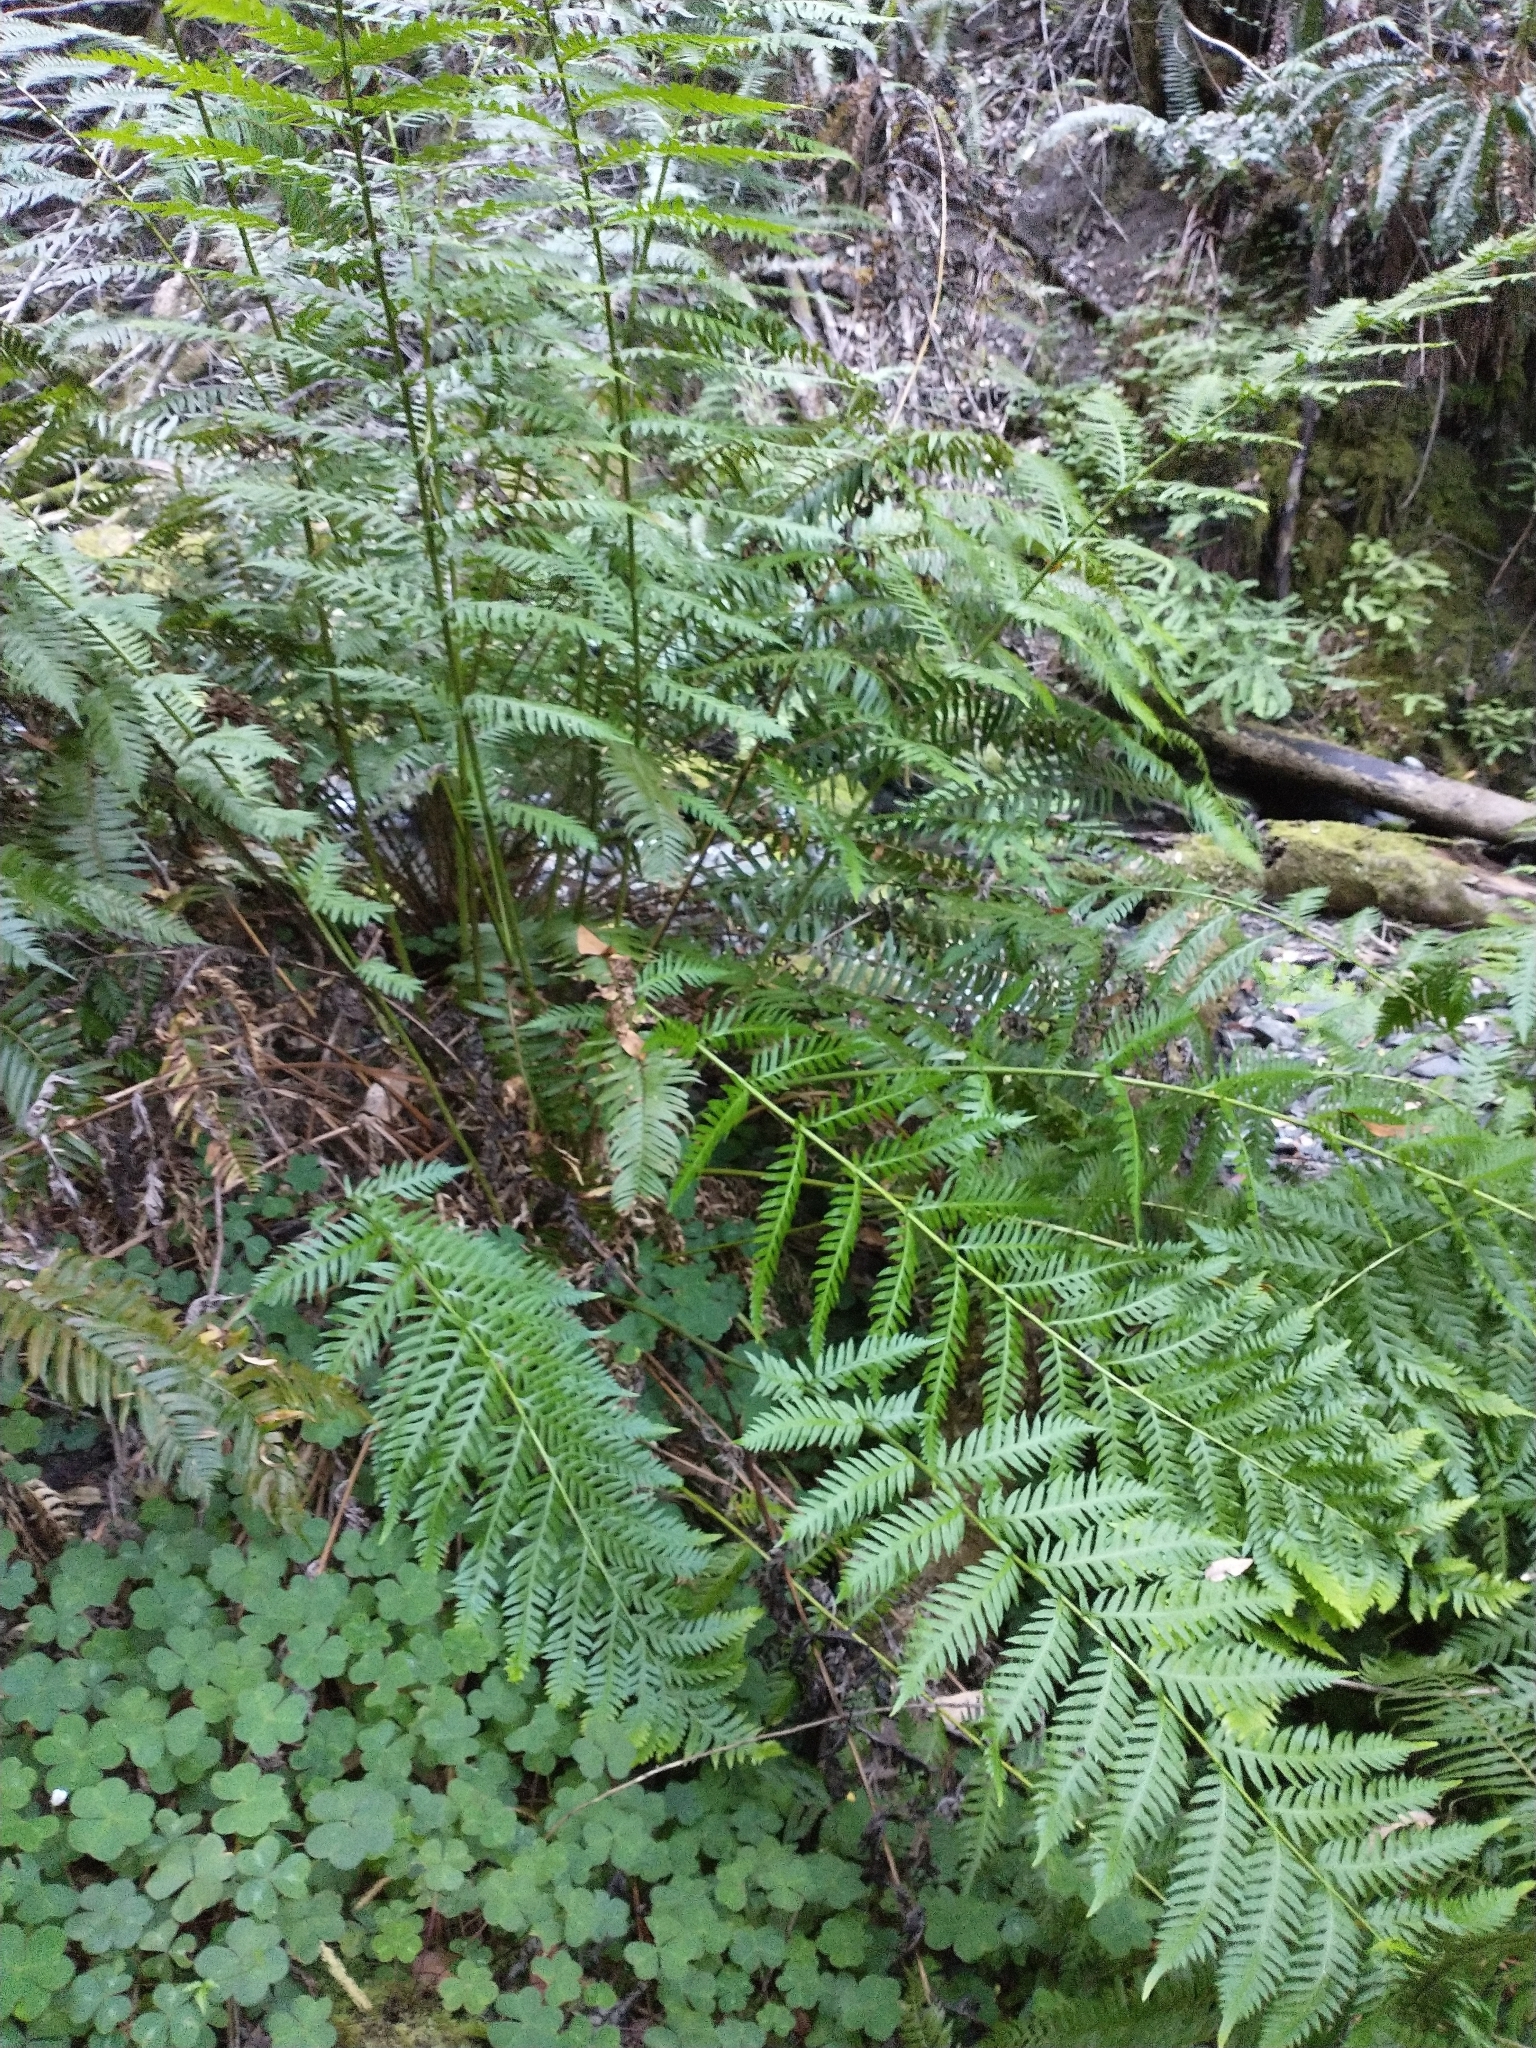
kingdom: Plantae
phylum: Tracheophyta
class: Polypodiopsida
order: Polypodiales
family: Blechnaceae
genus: Woodwardia
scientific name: Woodwardia fimbriata
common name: Giant chain fern
